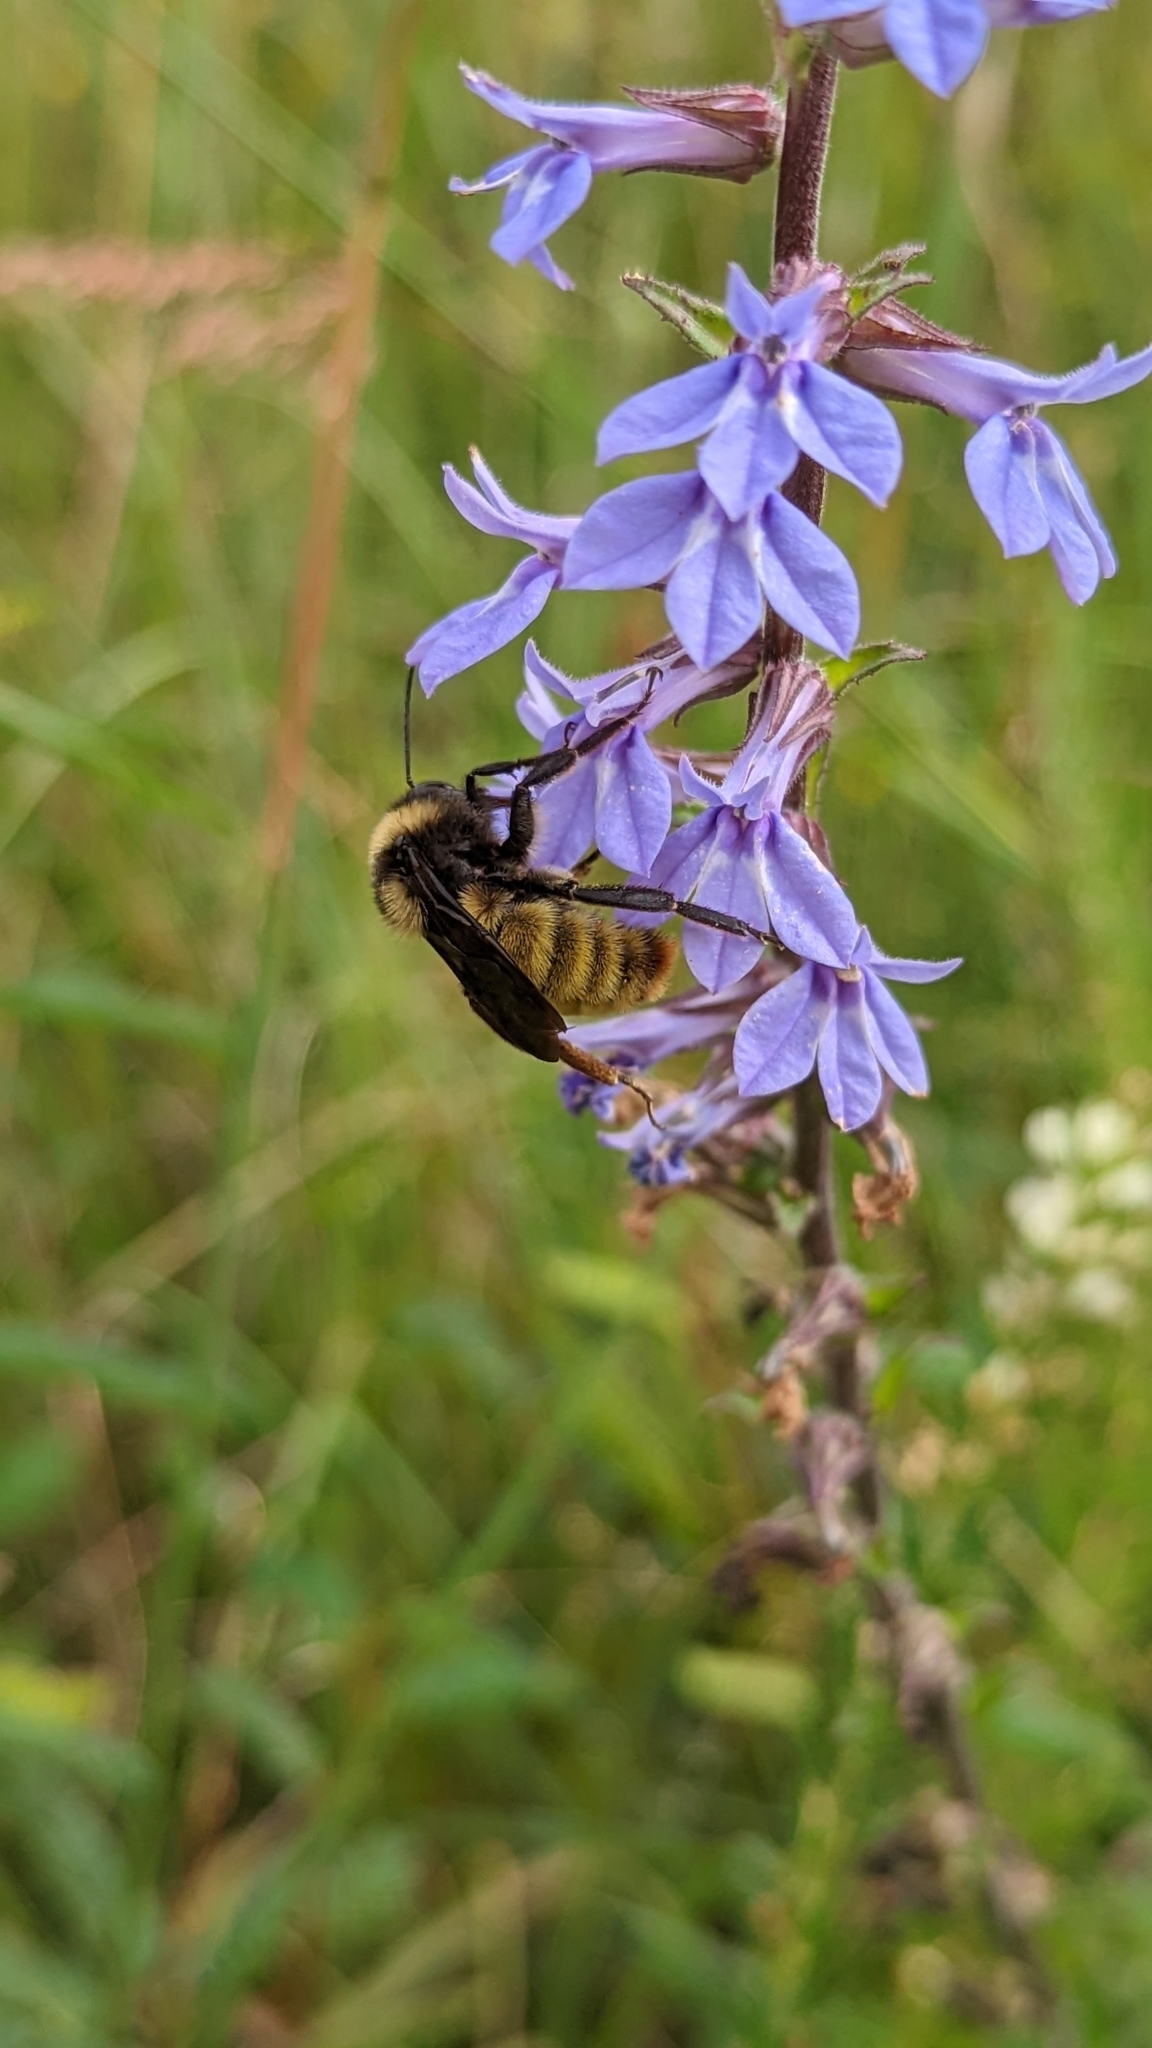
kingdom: Animalia
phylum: Arthropoda
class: Insecta
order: Hymenoptera
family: Apidae
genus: Bombus
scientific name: Bombus pensylvanicus
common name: Bumble bee
